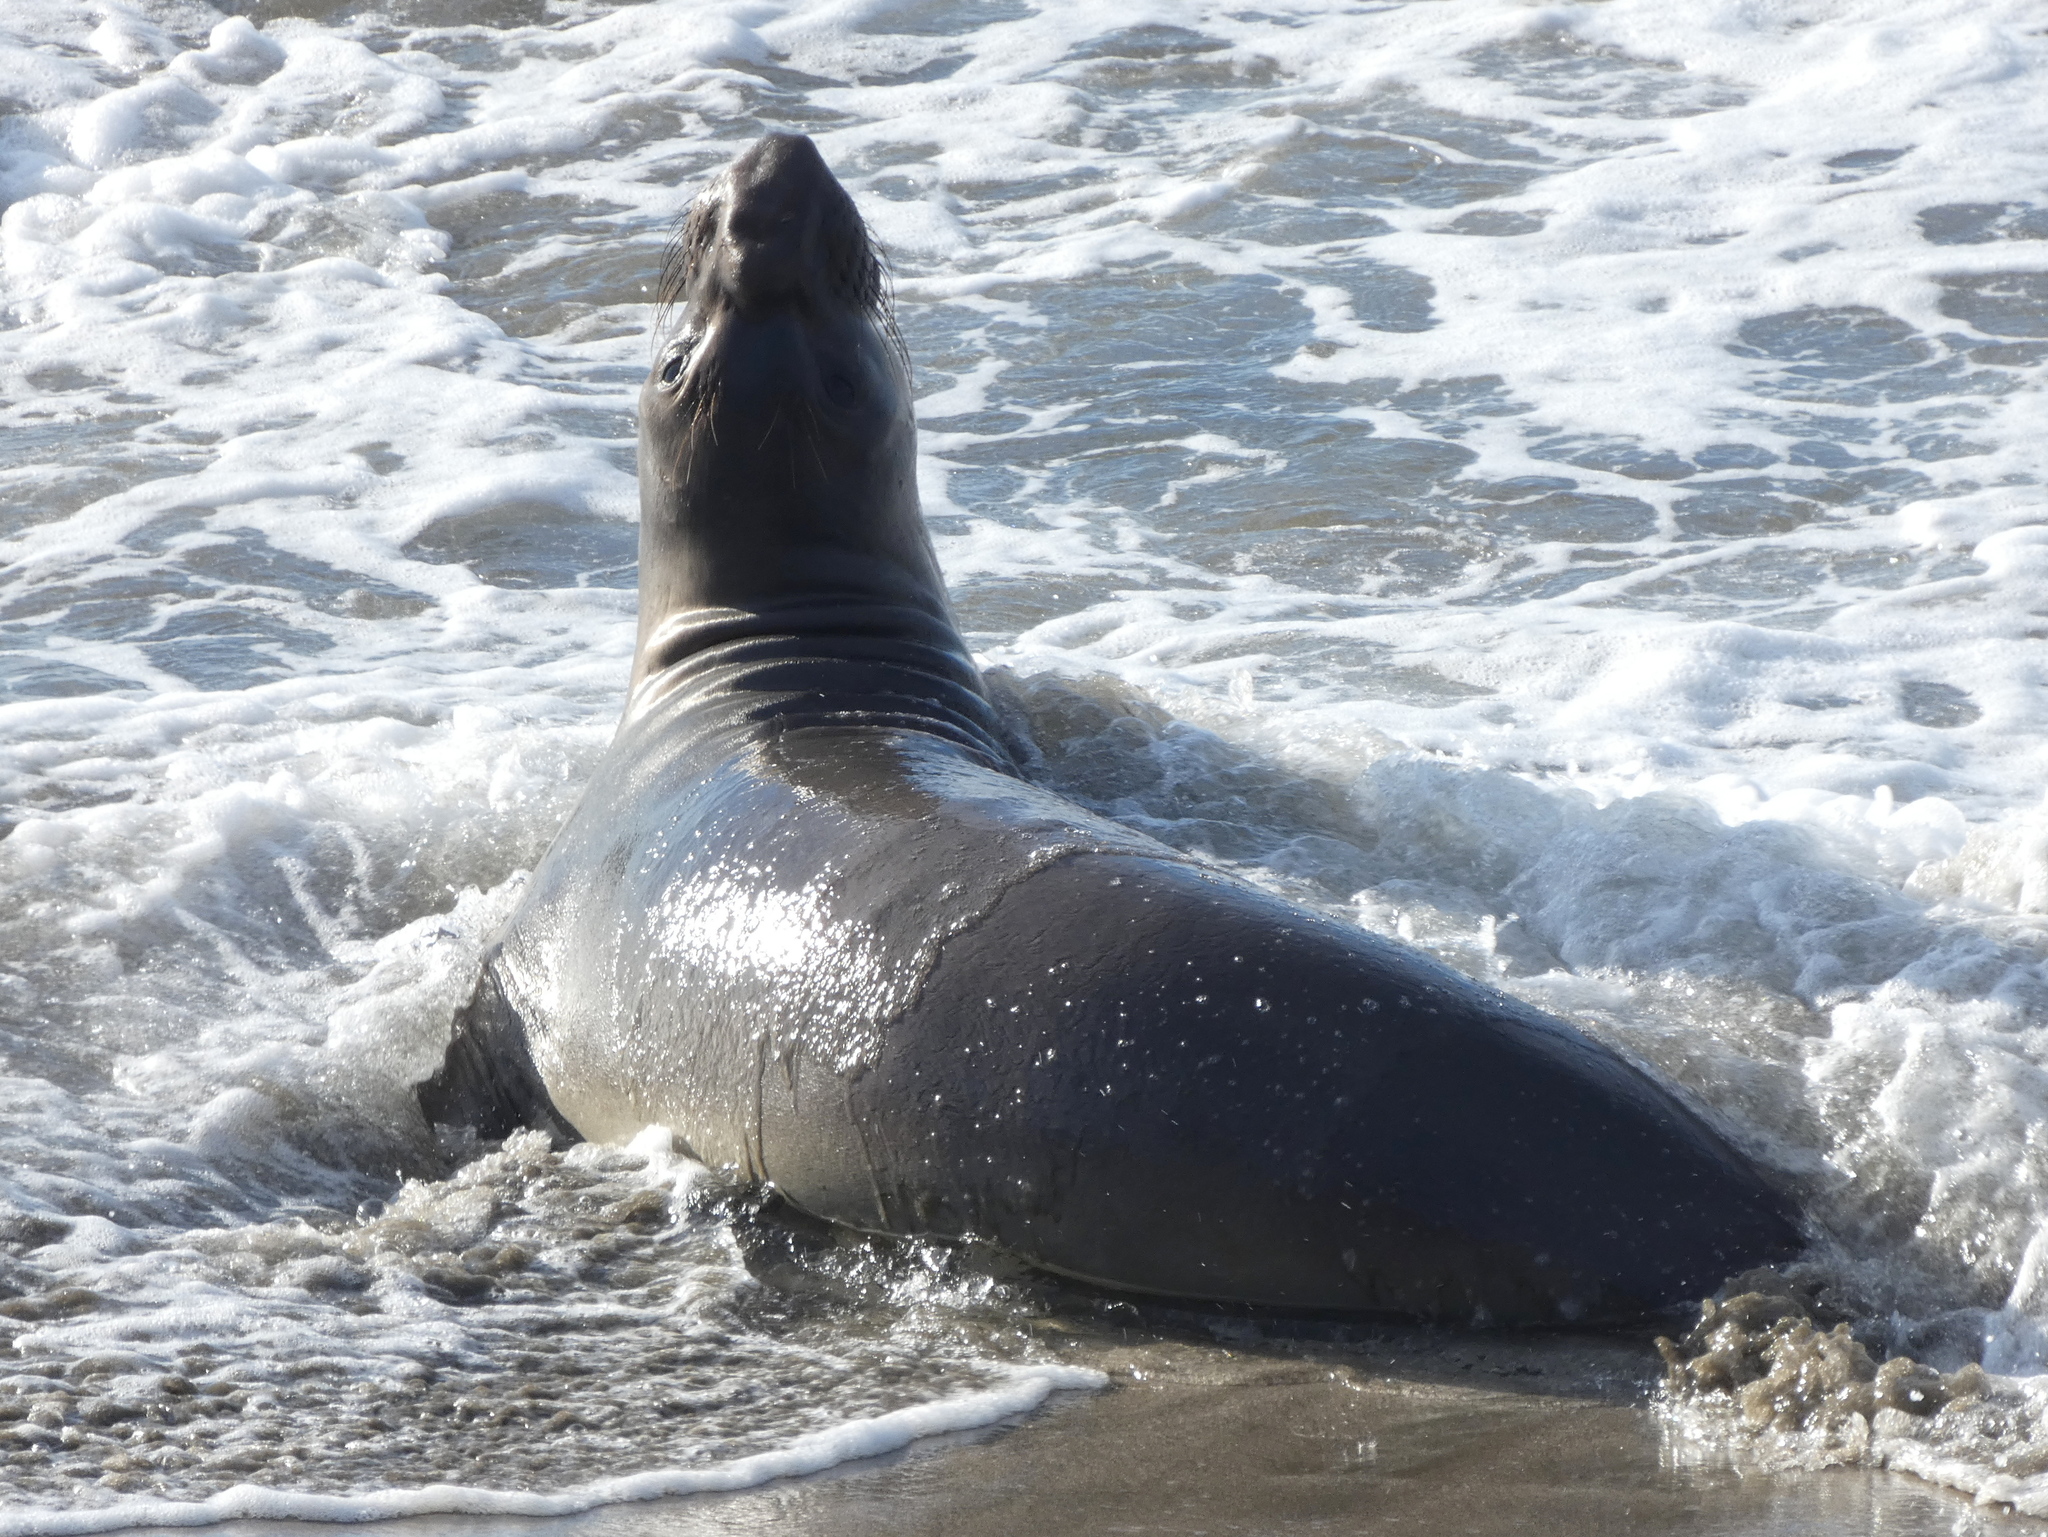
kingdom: Animalia
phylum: Chordata
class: Mammalia
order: Carnivora
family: Phocidae
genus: Mirounga
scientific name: Mirounga angustirostris
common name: Northern elephant seal
